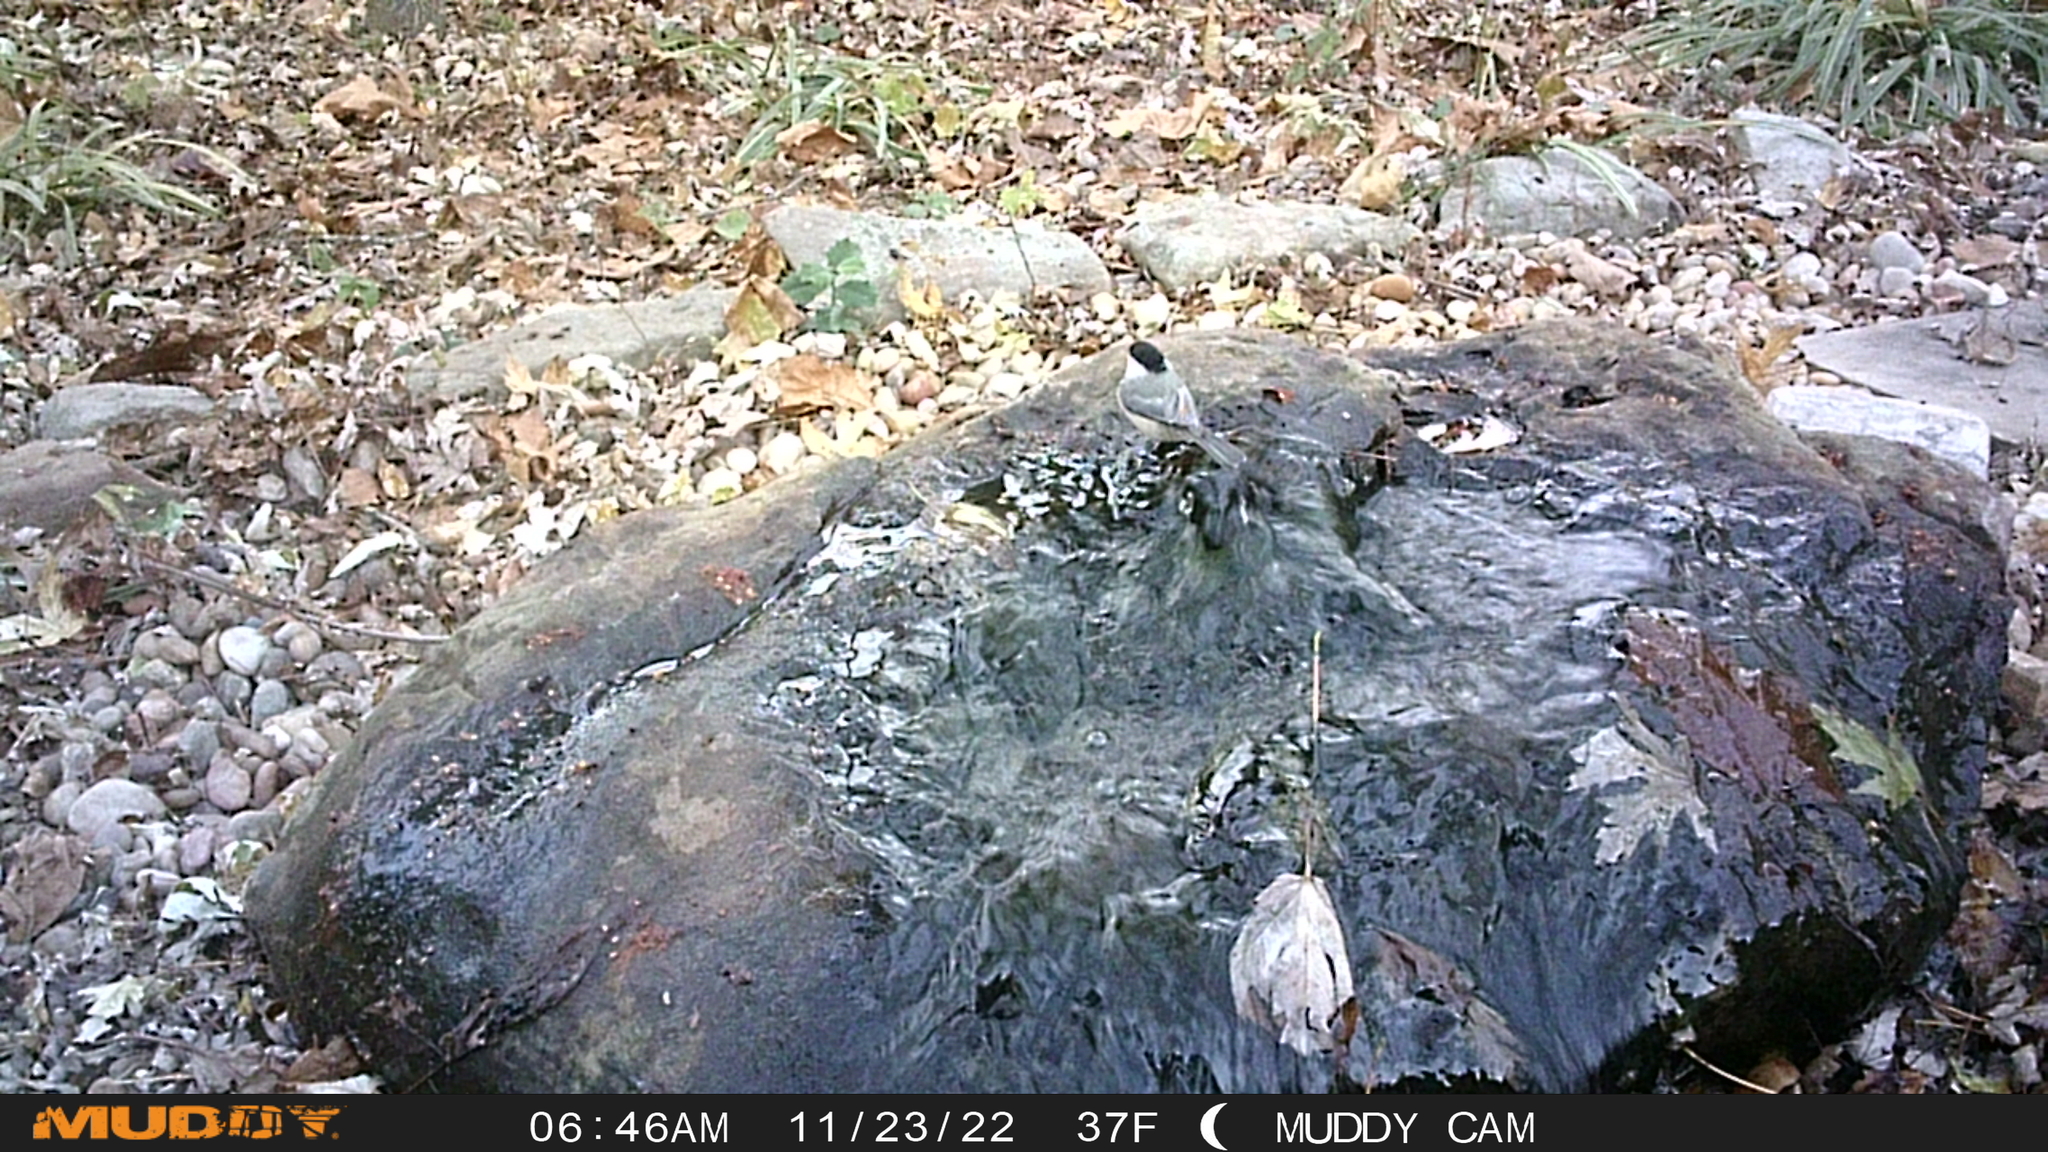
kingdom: Animalia
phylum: Chordata
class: Aves
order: Passeriformes
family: Paridae
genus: Poecile
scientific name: Poecile carolinensis
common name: Carolina chickadee
